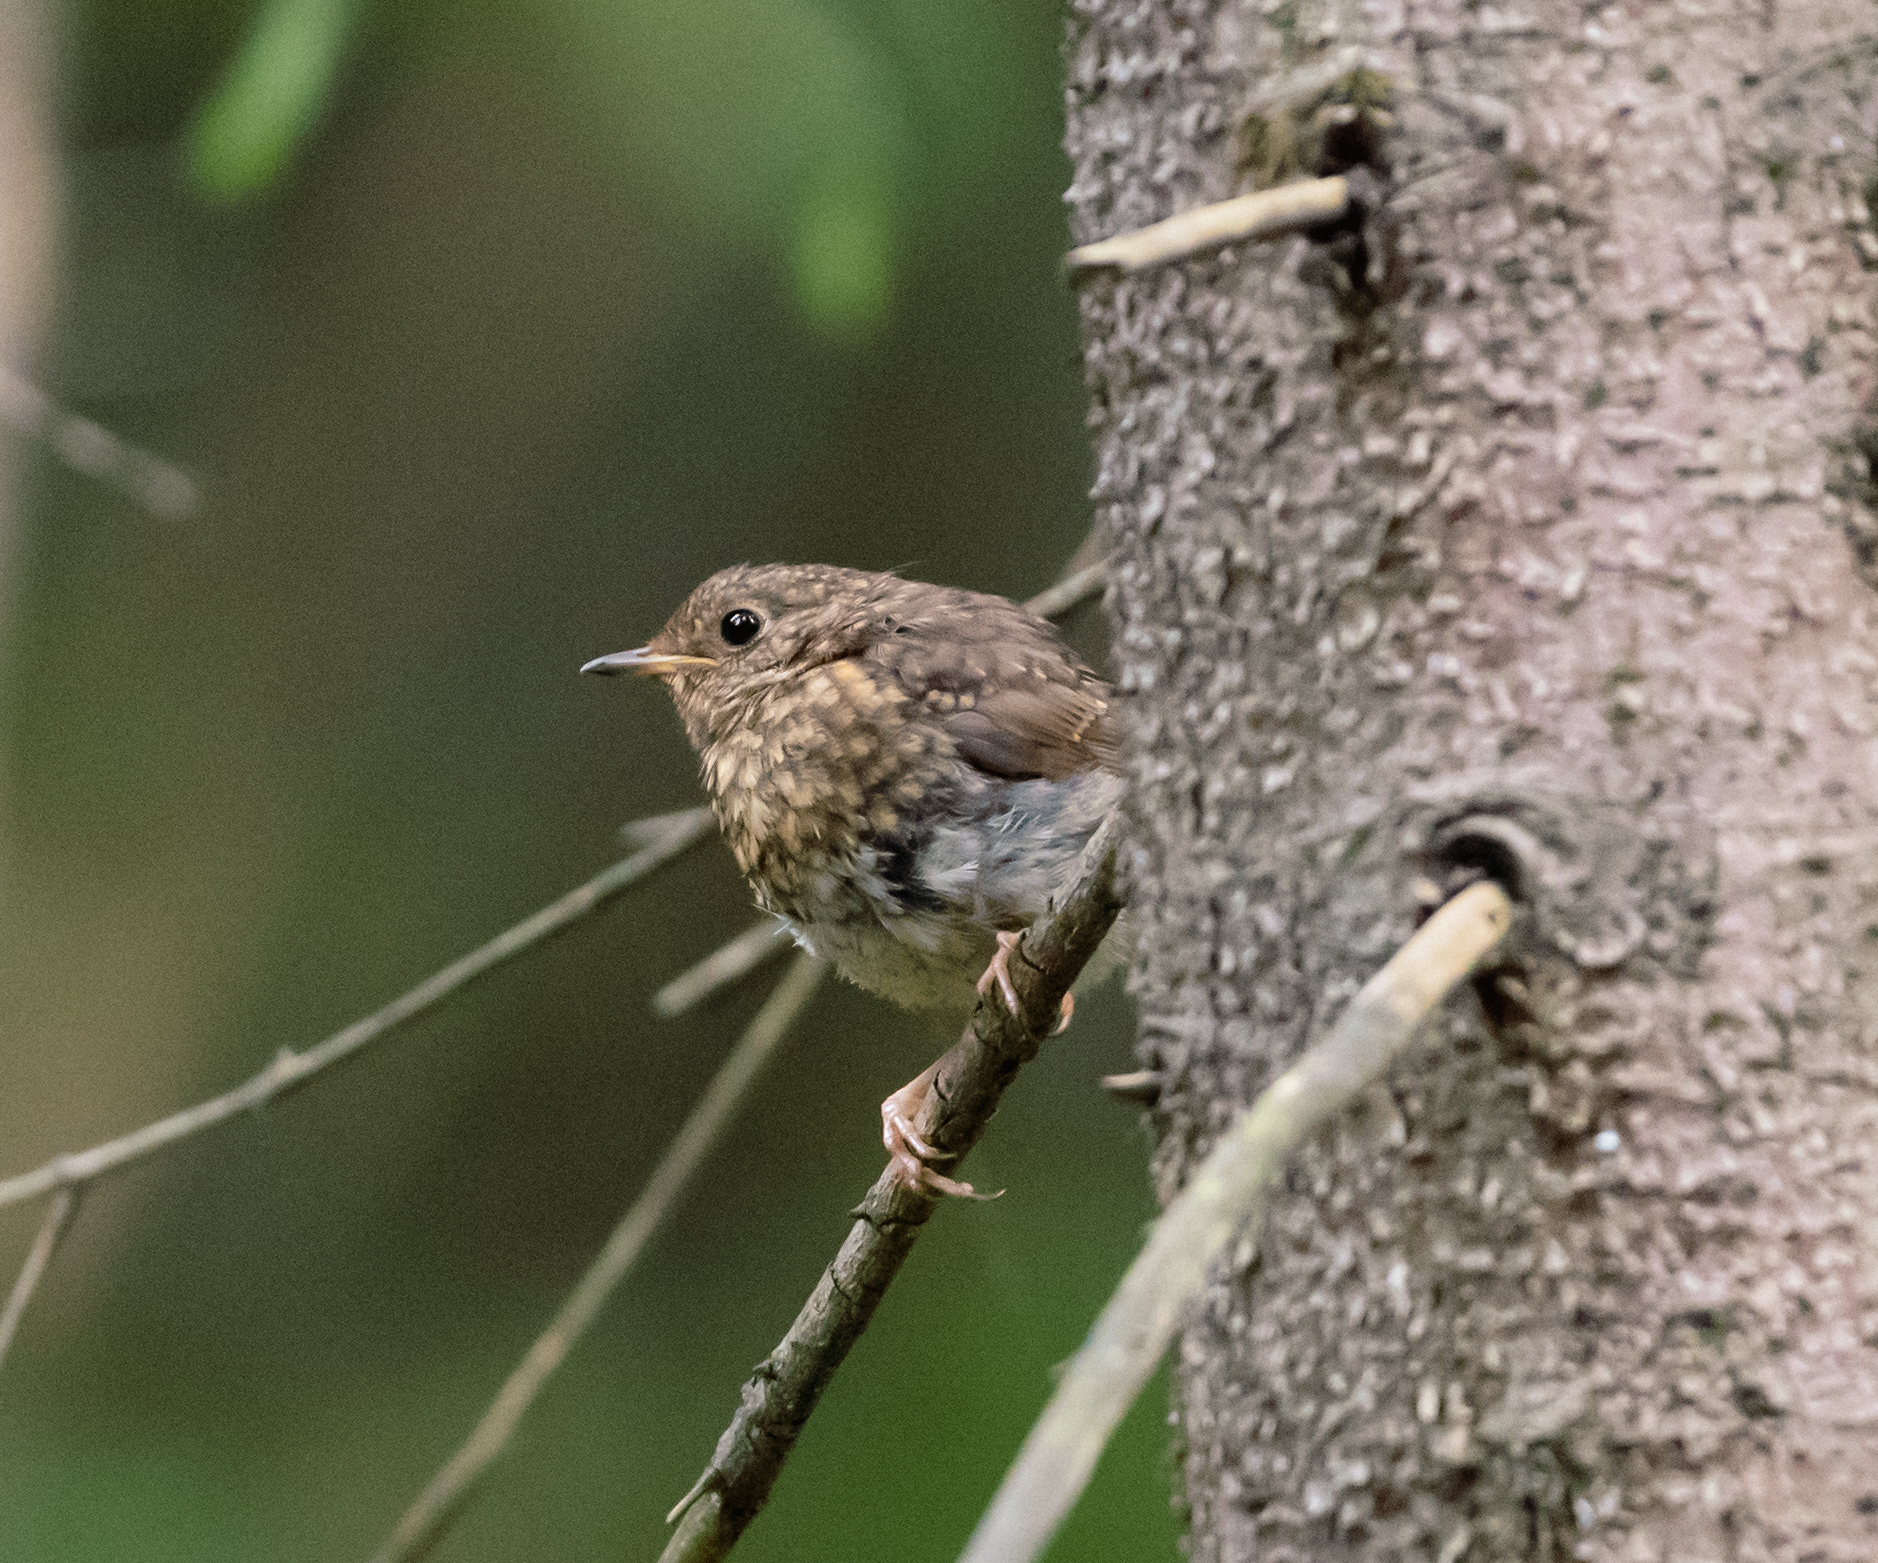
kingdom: Animalia
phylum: Chordata
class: Aves
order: Passeriformes
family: Muscicapidae
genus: Erithacus
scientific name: Erithacus rubecula
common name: European robin
